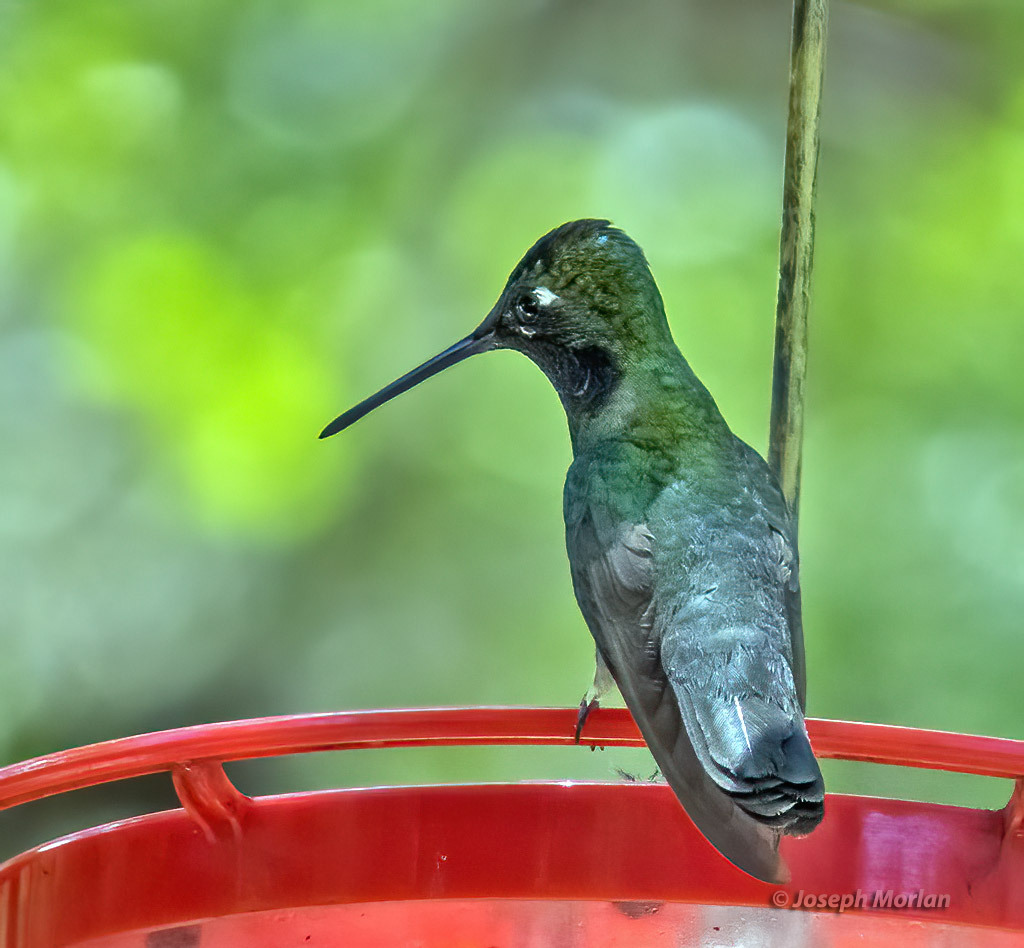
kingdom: Animalia
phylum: Chordata
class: Aves
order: Apodiformes
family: Trochilidae
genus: Eugenes
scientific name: Eugenes fulgens
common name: Magnificent hummingbird
